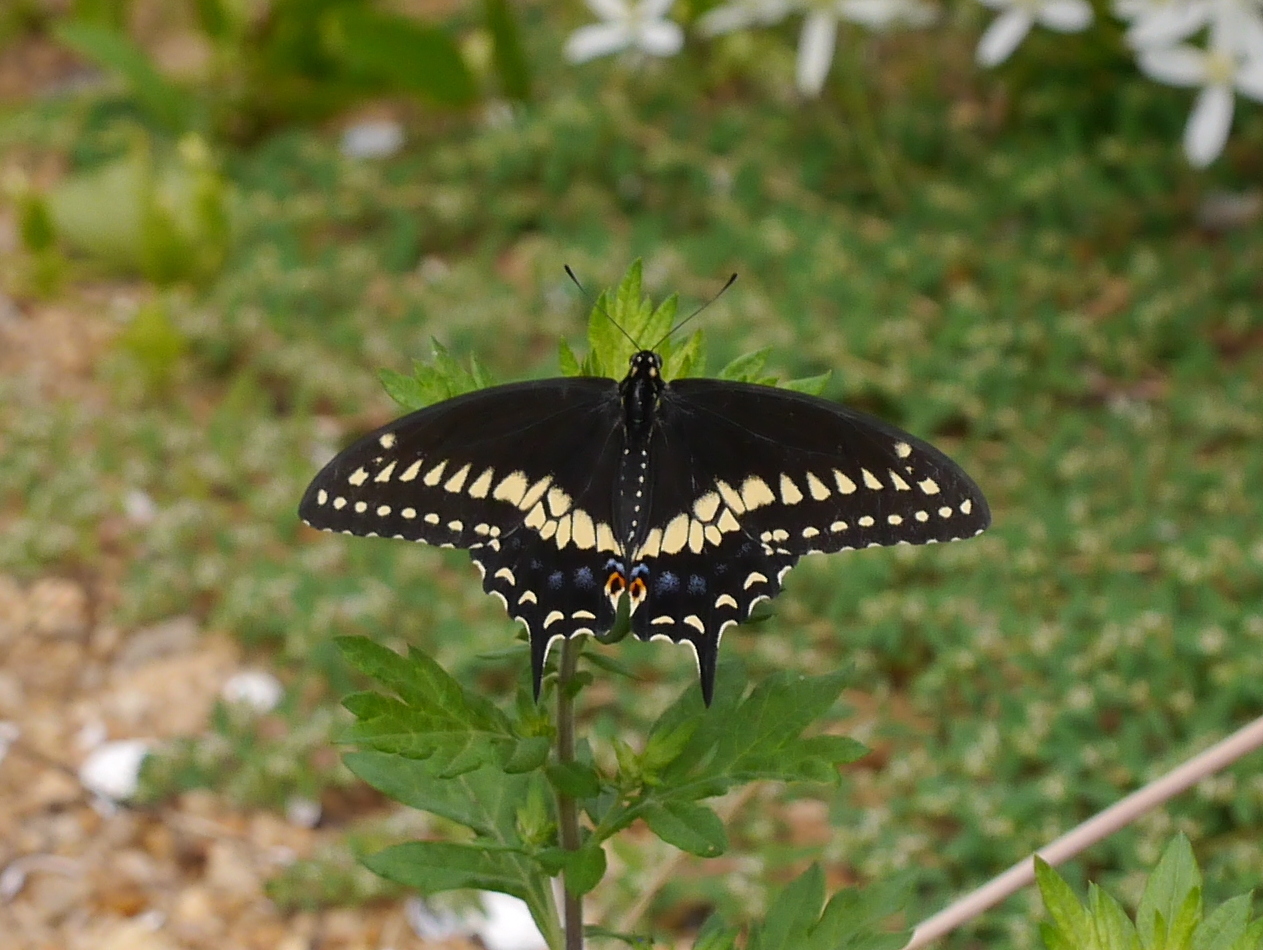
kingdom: Animalia
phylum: Arthropoda
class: Insecta
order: Lepidoptera
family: Papilionidae
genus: Papilio
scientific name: Papilio polyxenes
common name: Black swallowtail
